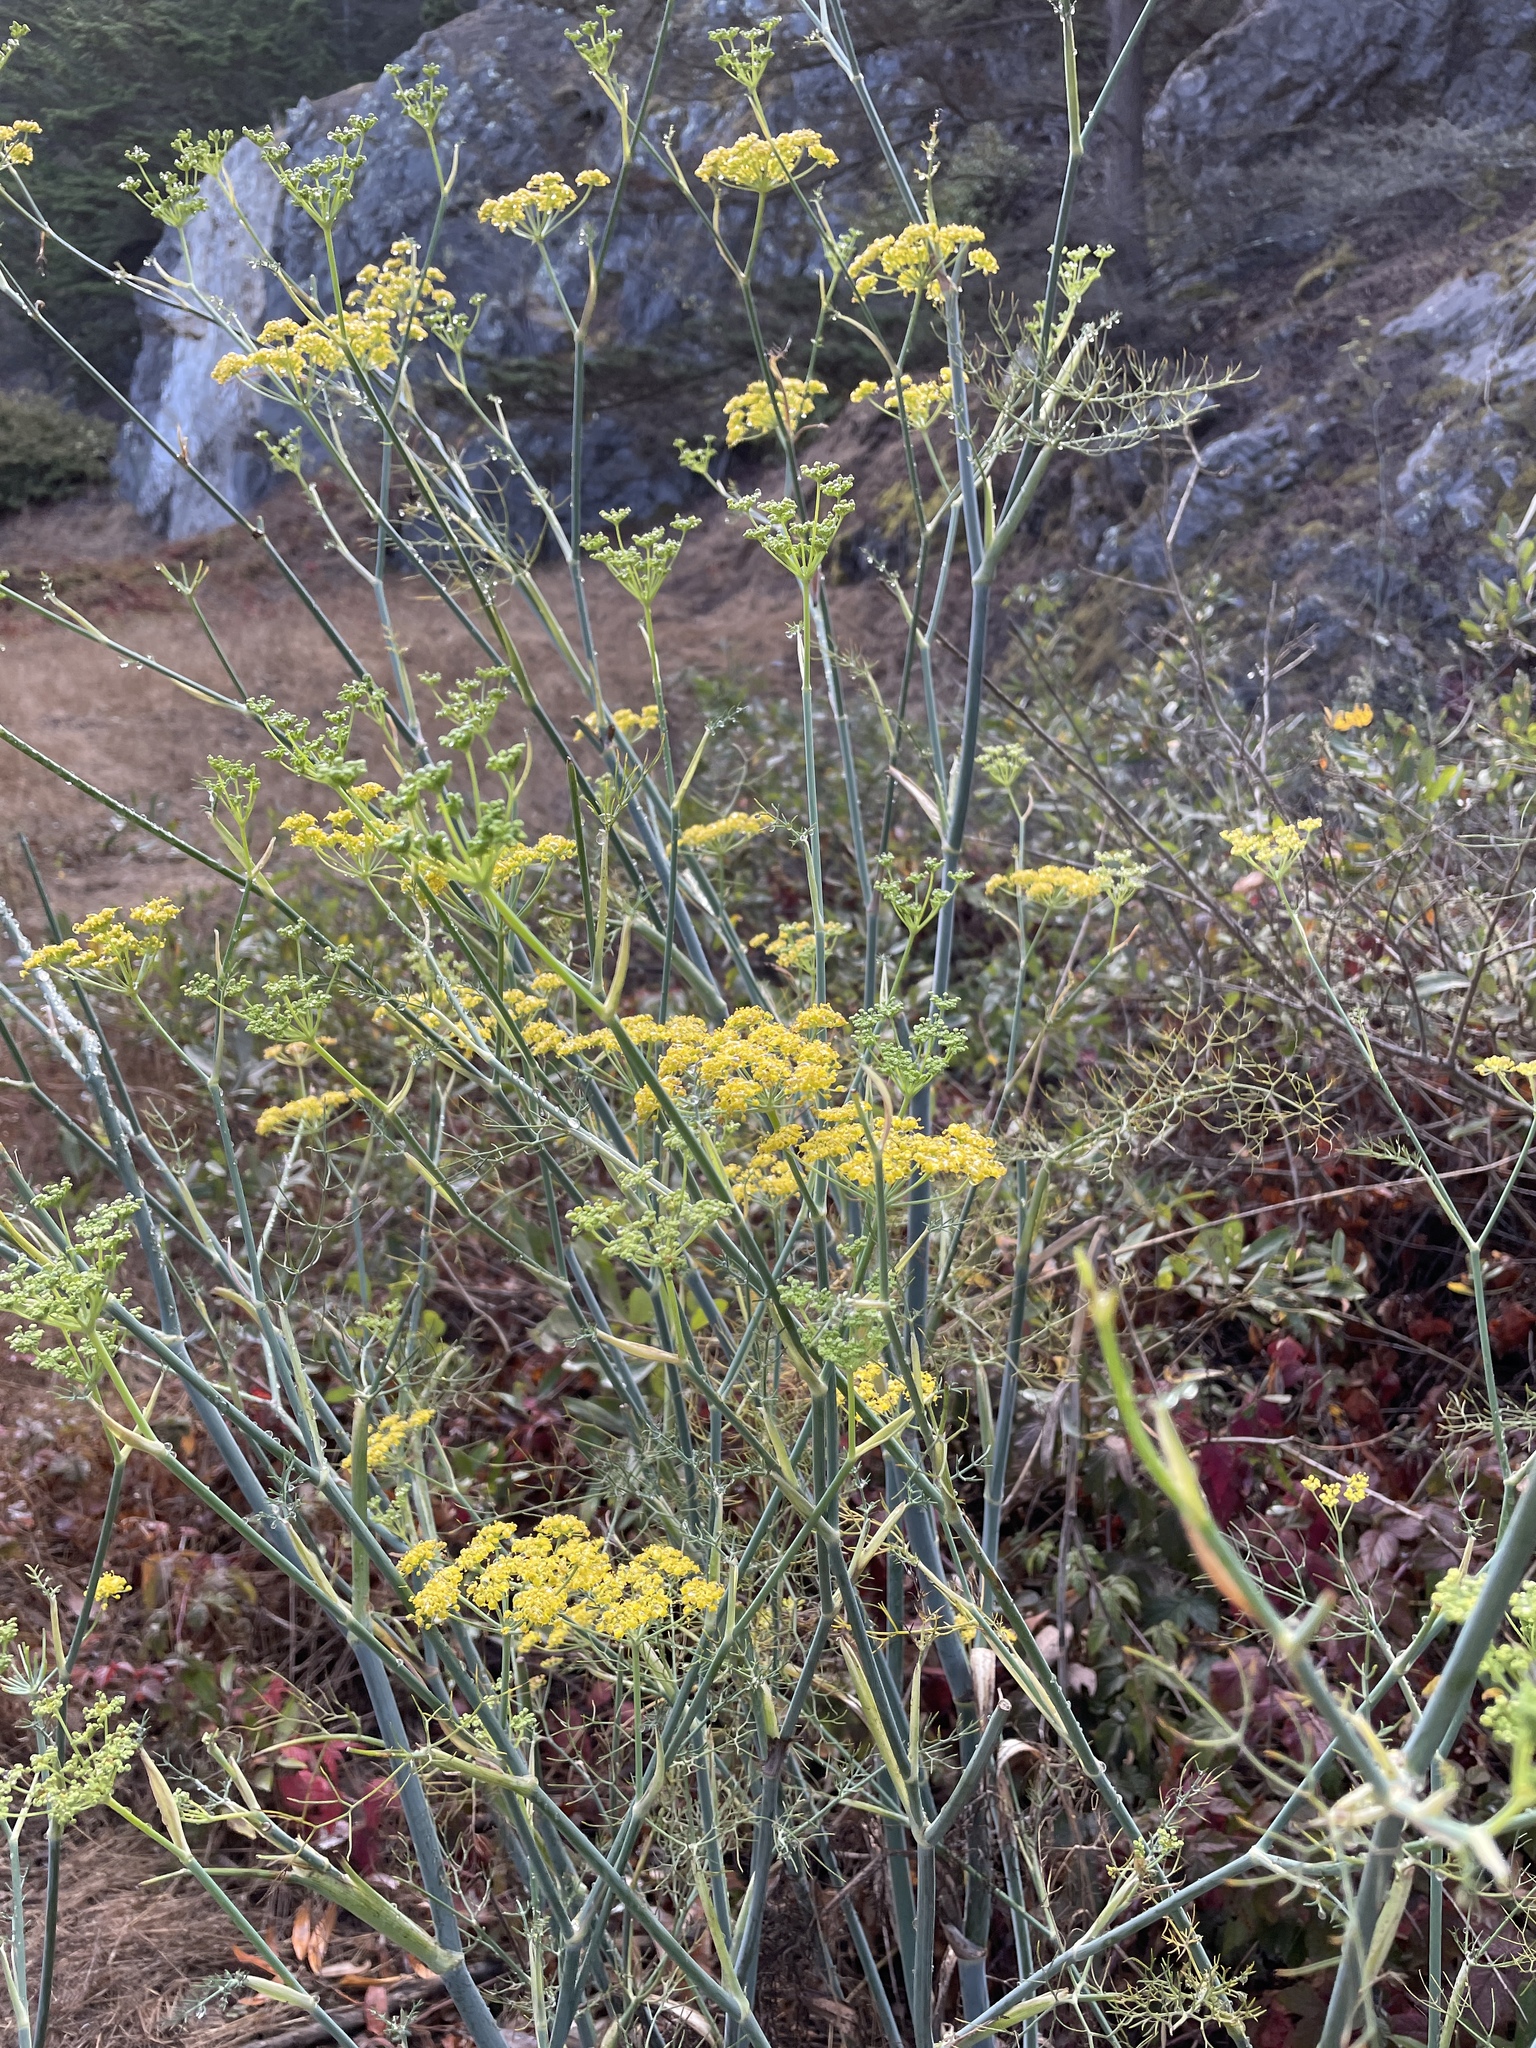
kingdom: Plantae
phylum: Tracheophyta
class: Magnoliopsida
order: Apiales
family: Apiaceae
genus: Foeniculum
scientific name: Foeniculum vulgare
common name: Fennel
